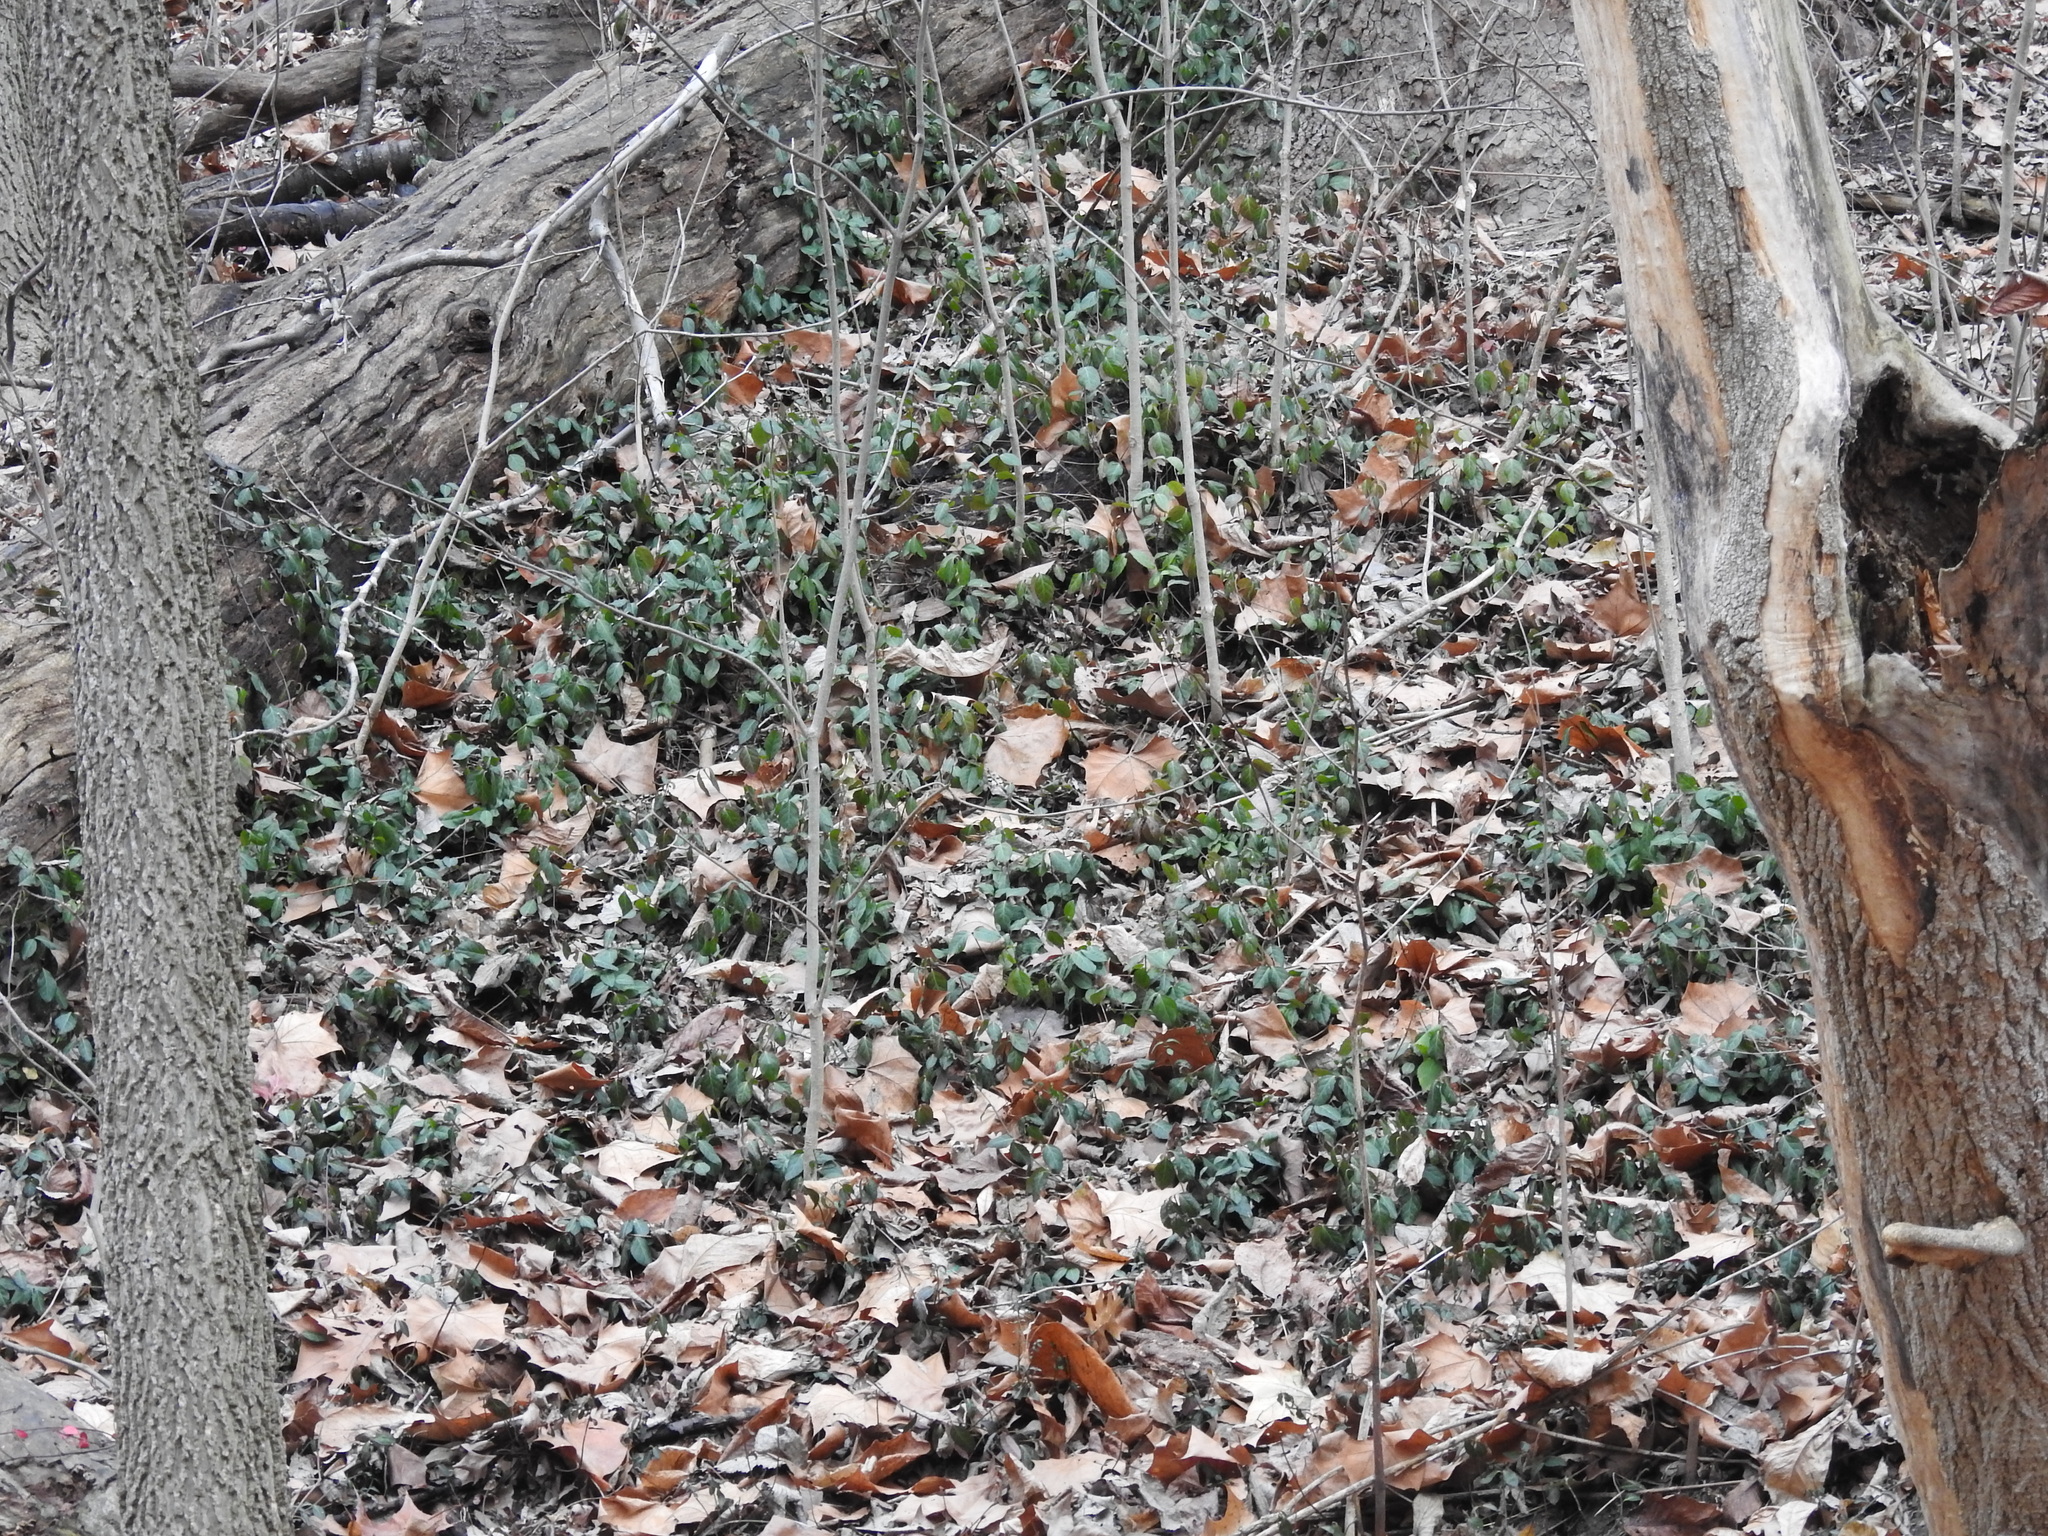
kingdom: Plantae
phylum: Tracheophyta
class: Magnoliopsida
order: Celastrales
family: Celastraceae
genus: Euonymus
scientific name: Euonymus fortunei
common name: Climbing euonymus
